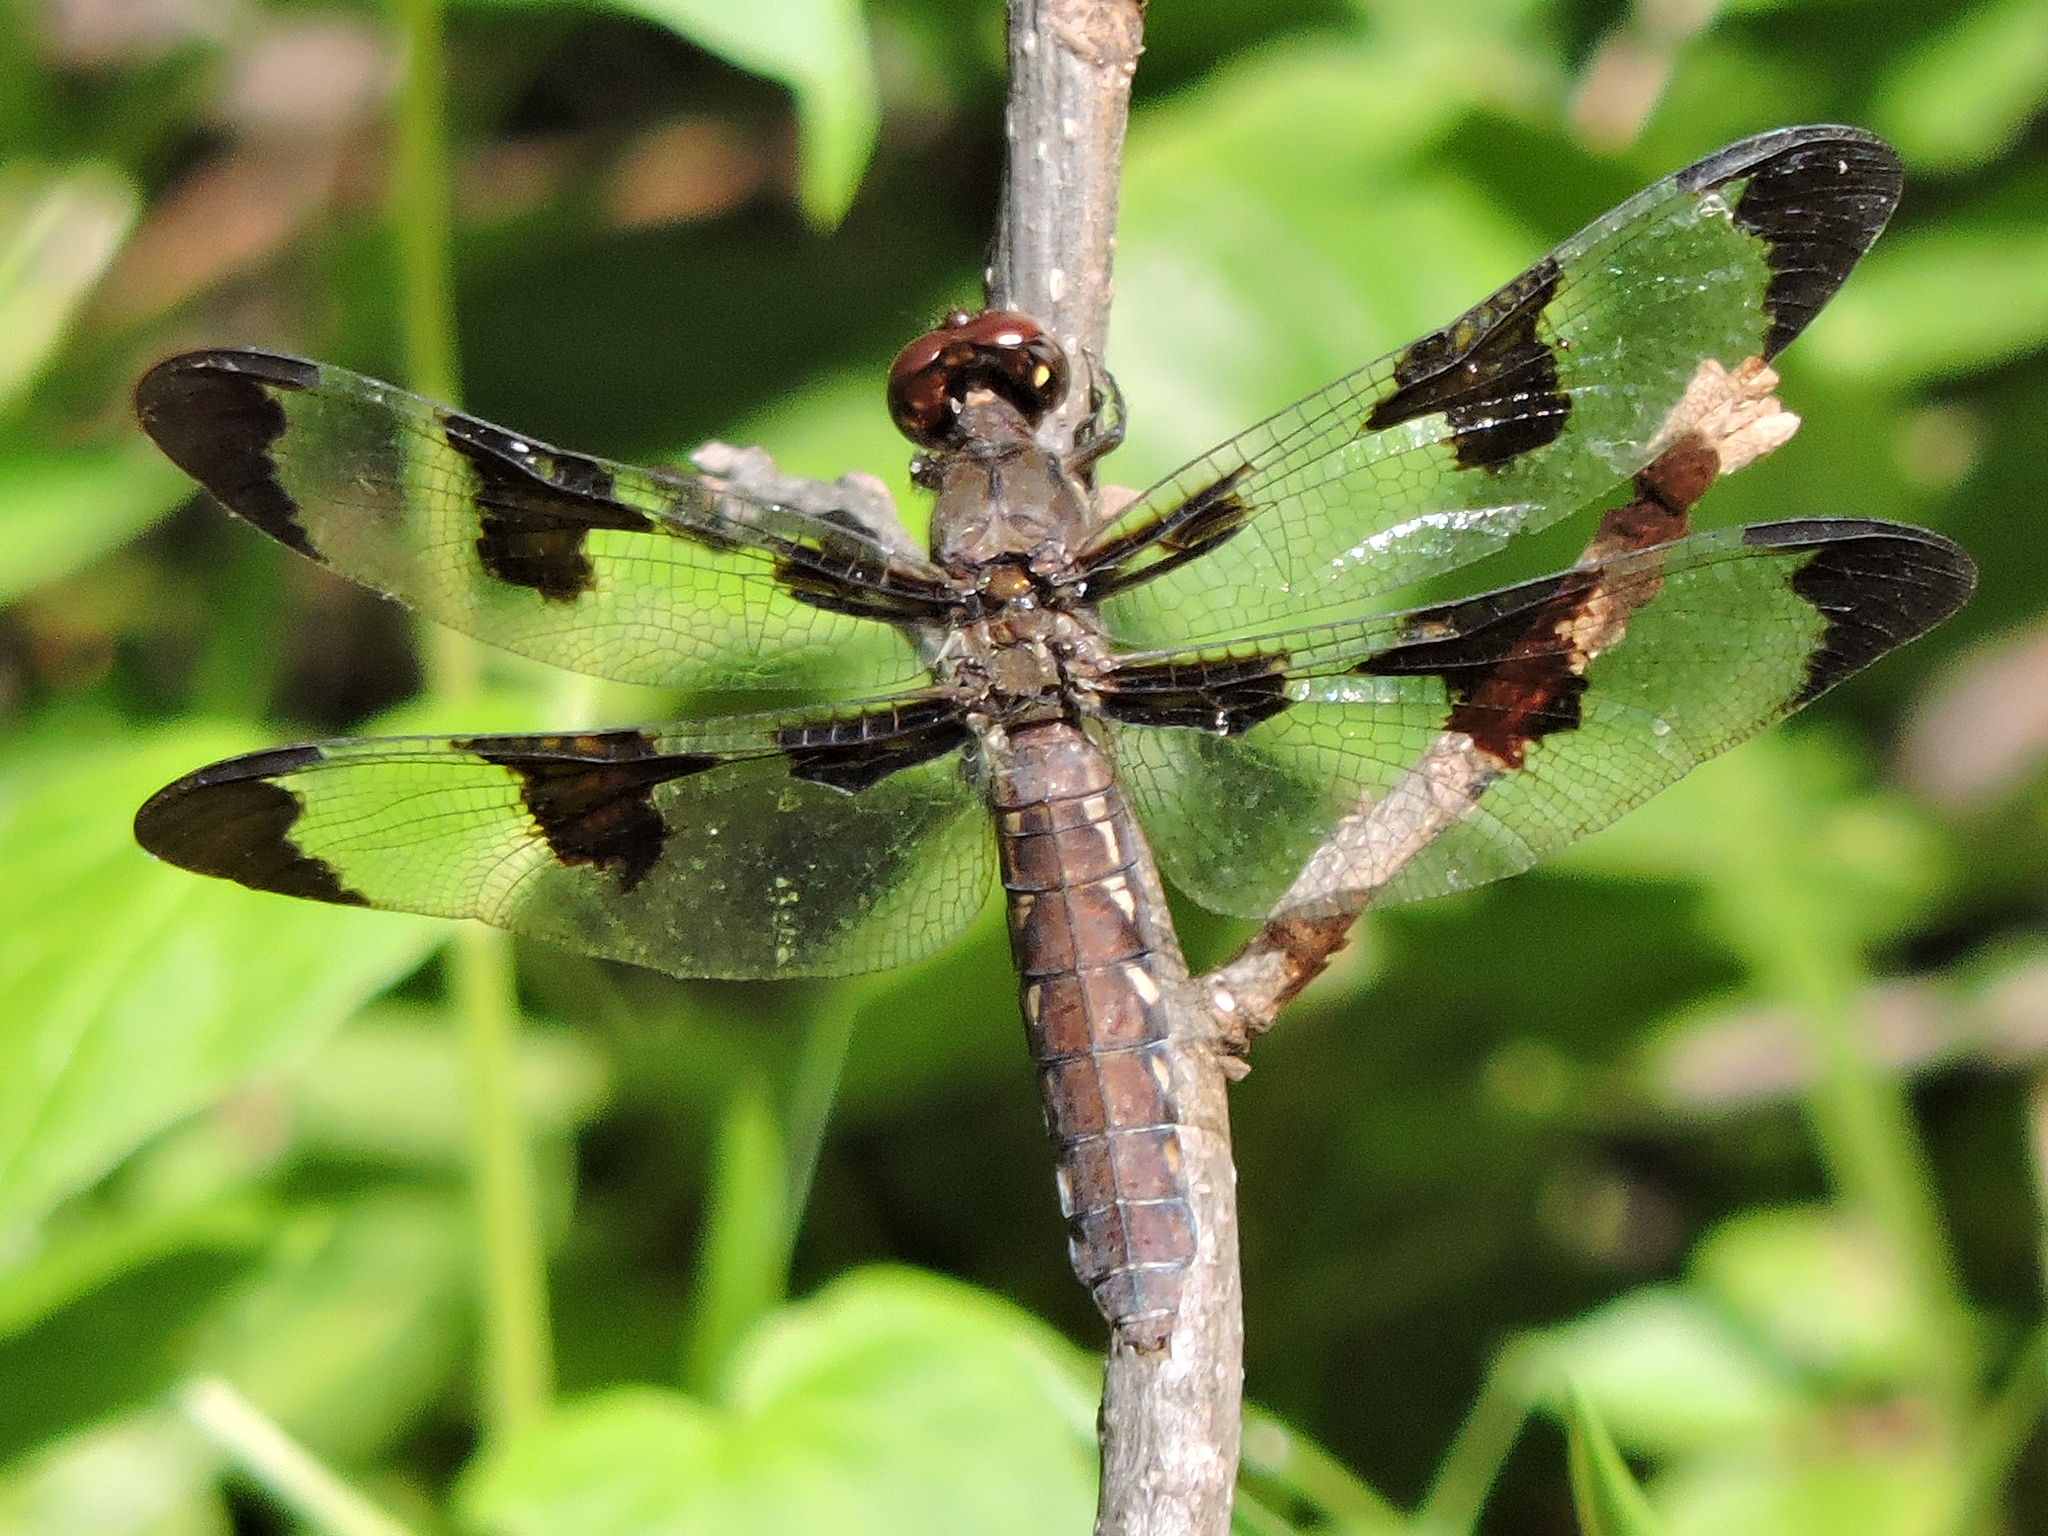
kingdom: Animalia
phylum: Arthropoda
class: Insecta
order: Odonata
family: Libellulidae
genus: Plathemis
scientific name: Plathemis lydia
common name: Common whitetail
